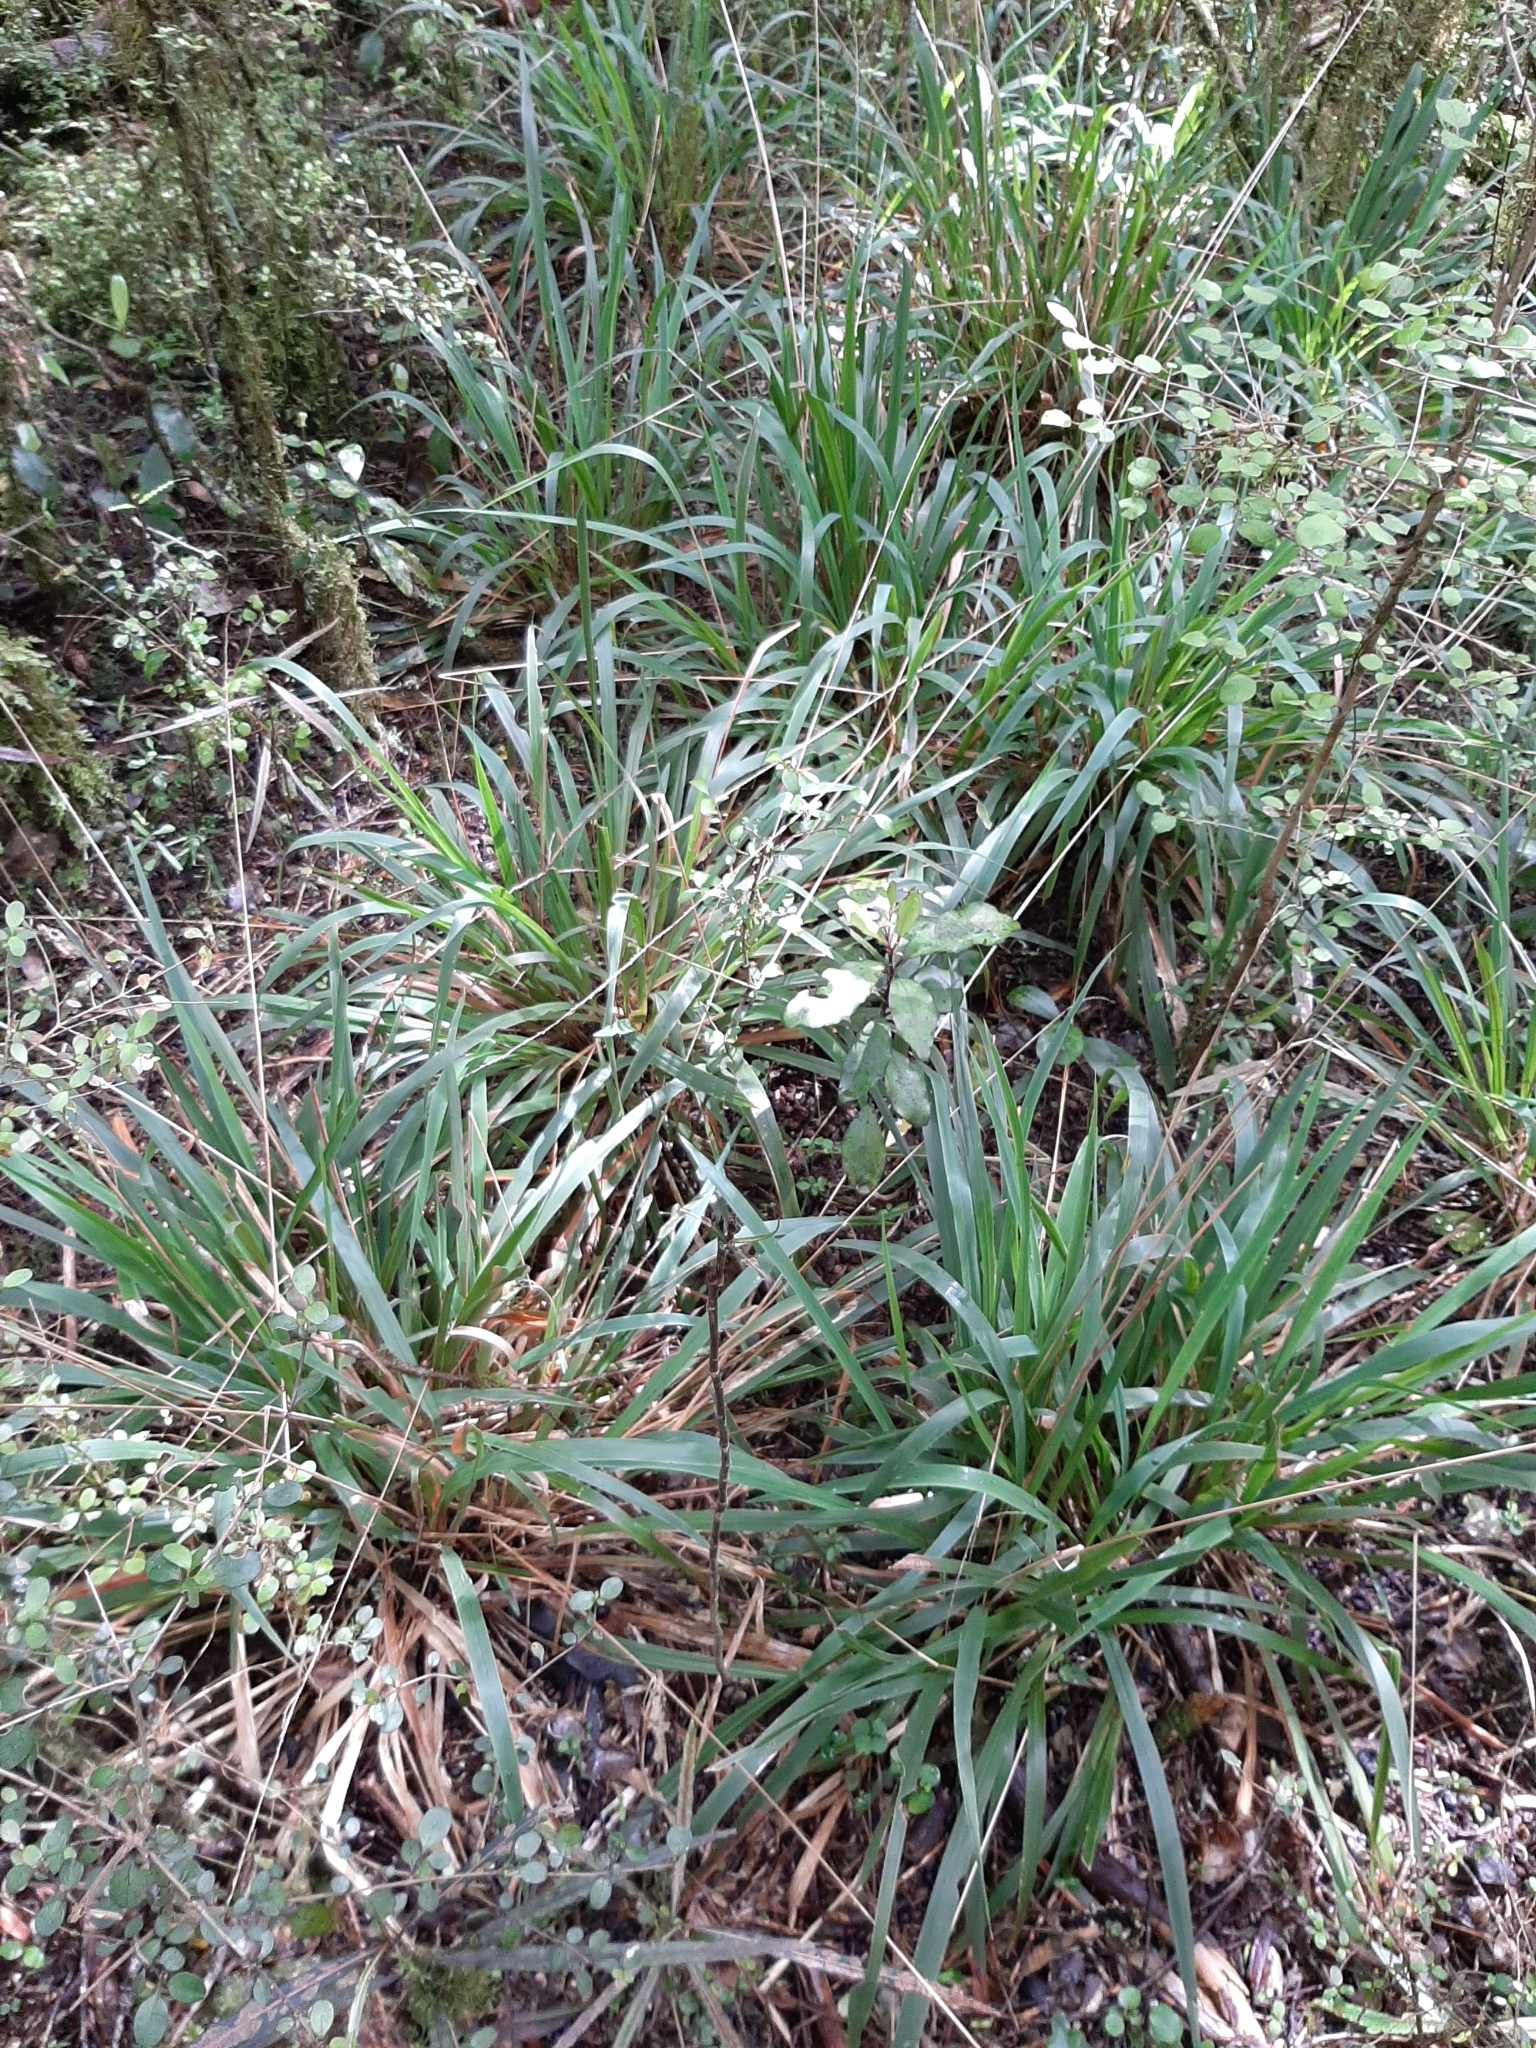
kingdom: Plantae
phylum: Tracheophyta
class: Liliopsida
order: Poales
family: Poaceae
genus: Ehrharta
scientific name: Ehrharta diplax
